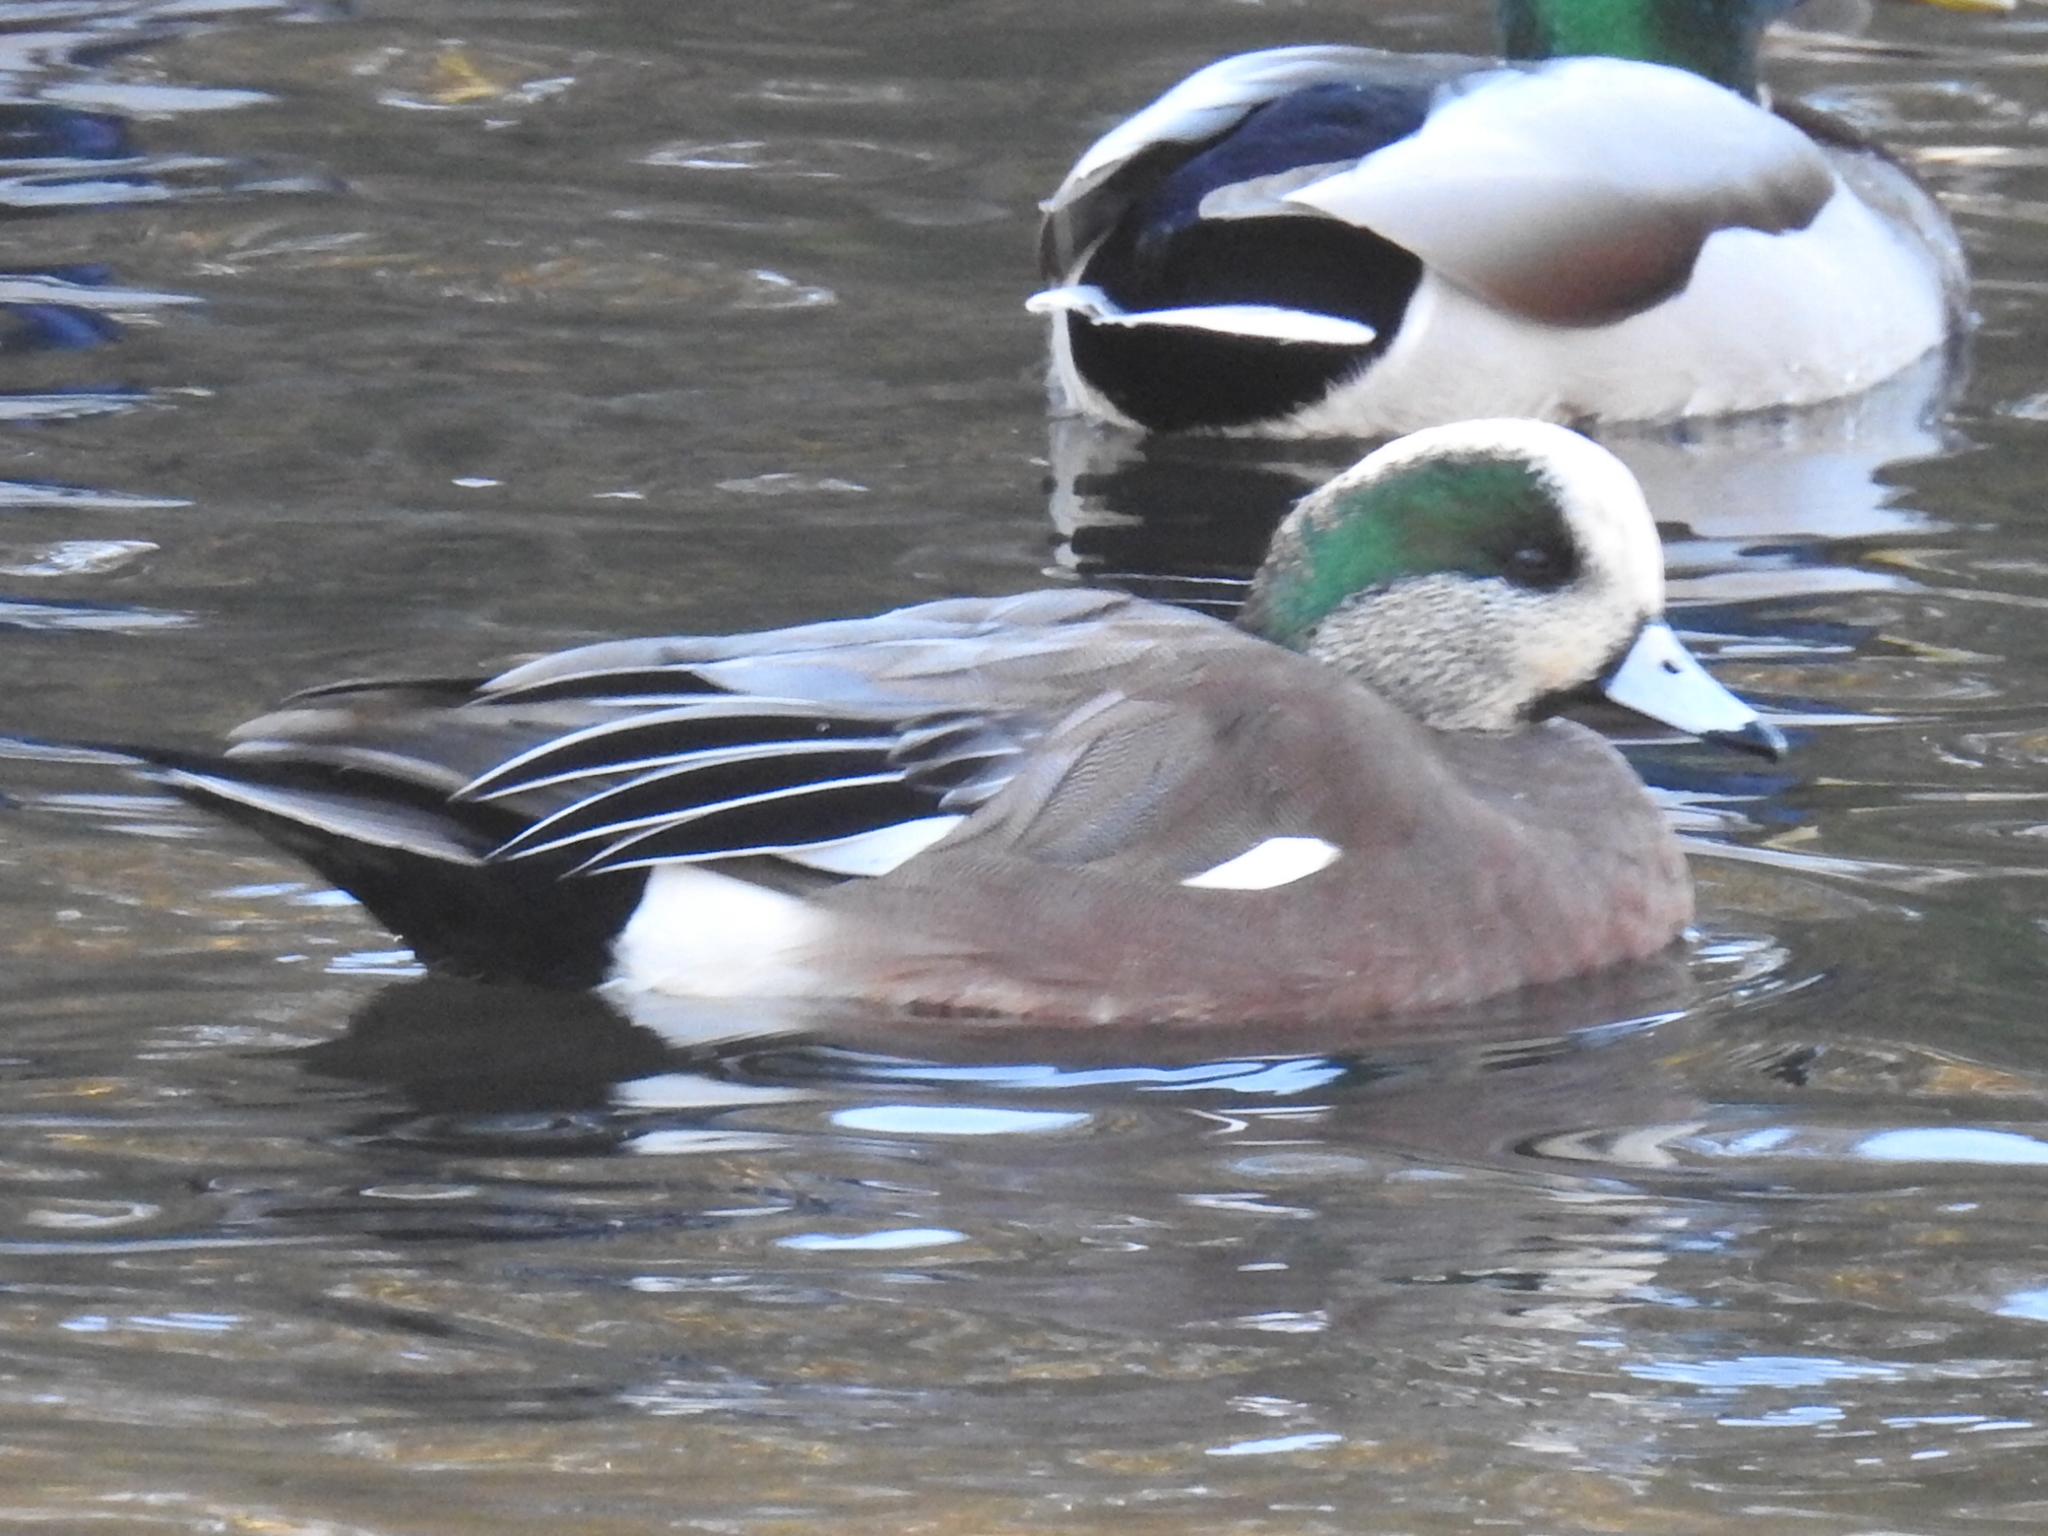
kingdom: Animalia
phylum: Chordata
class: Aves
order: Anseriformes
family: Anatidae
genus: Mareca
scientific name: Mareca americana
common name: American wigeon
